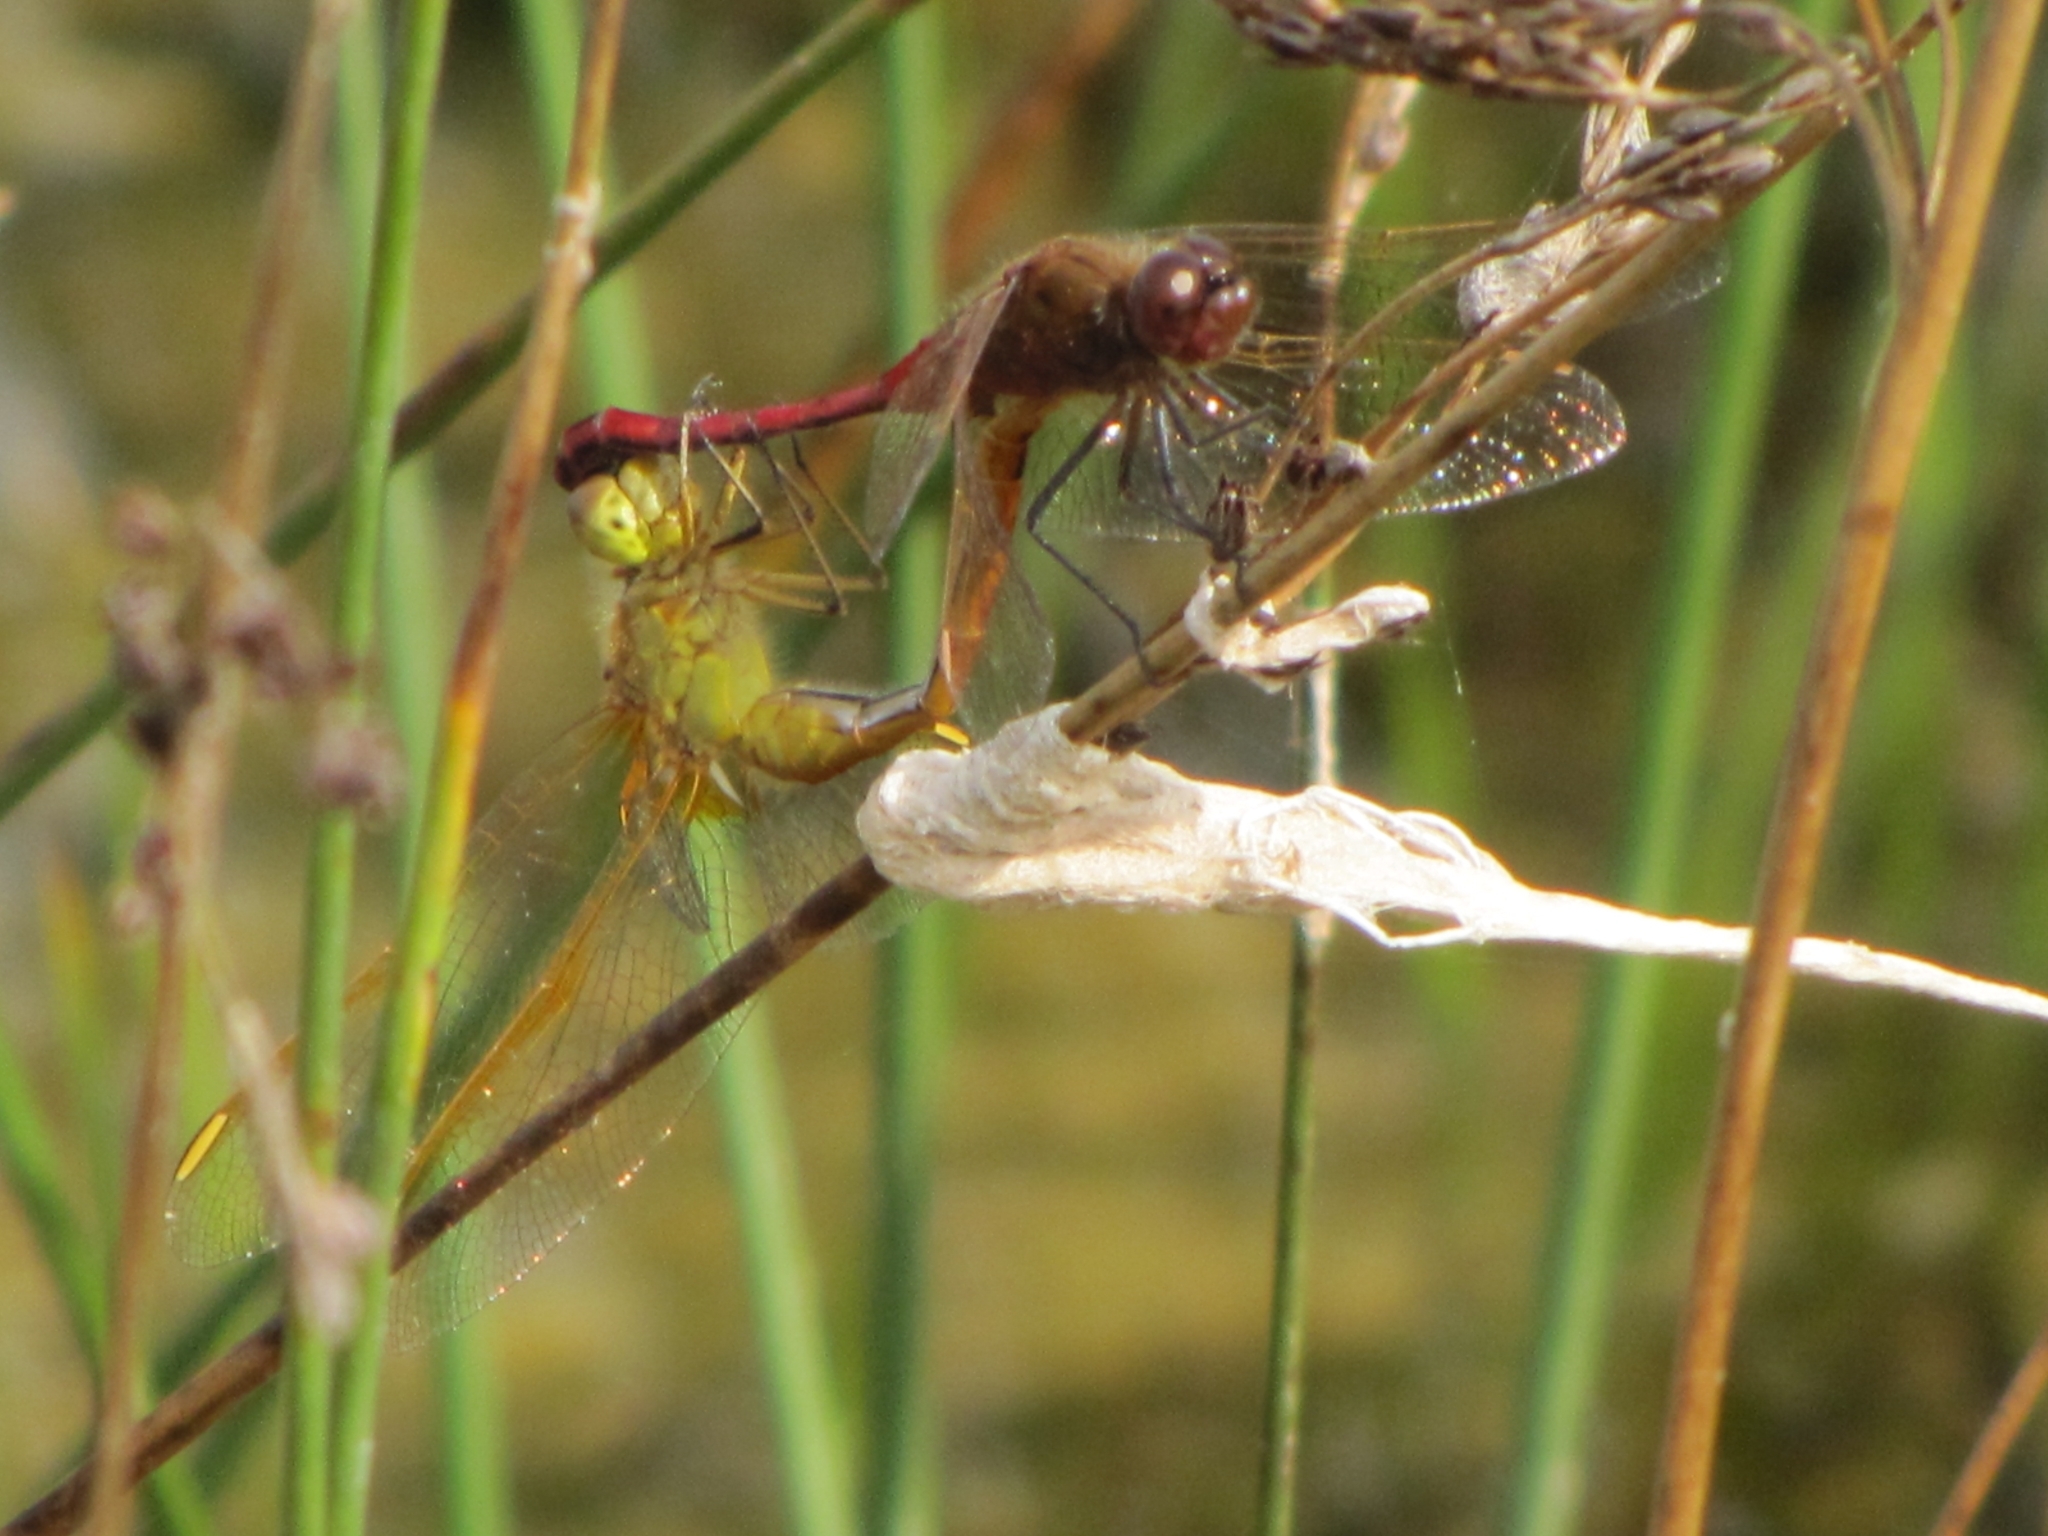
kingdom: Animalia
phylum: Arthropoda
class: Insecta
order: Odonata
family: Libellulidae
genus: Sympetrum
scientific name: Sympetrum costiferum
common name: Saffron-winged meadowhawk
